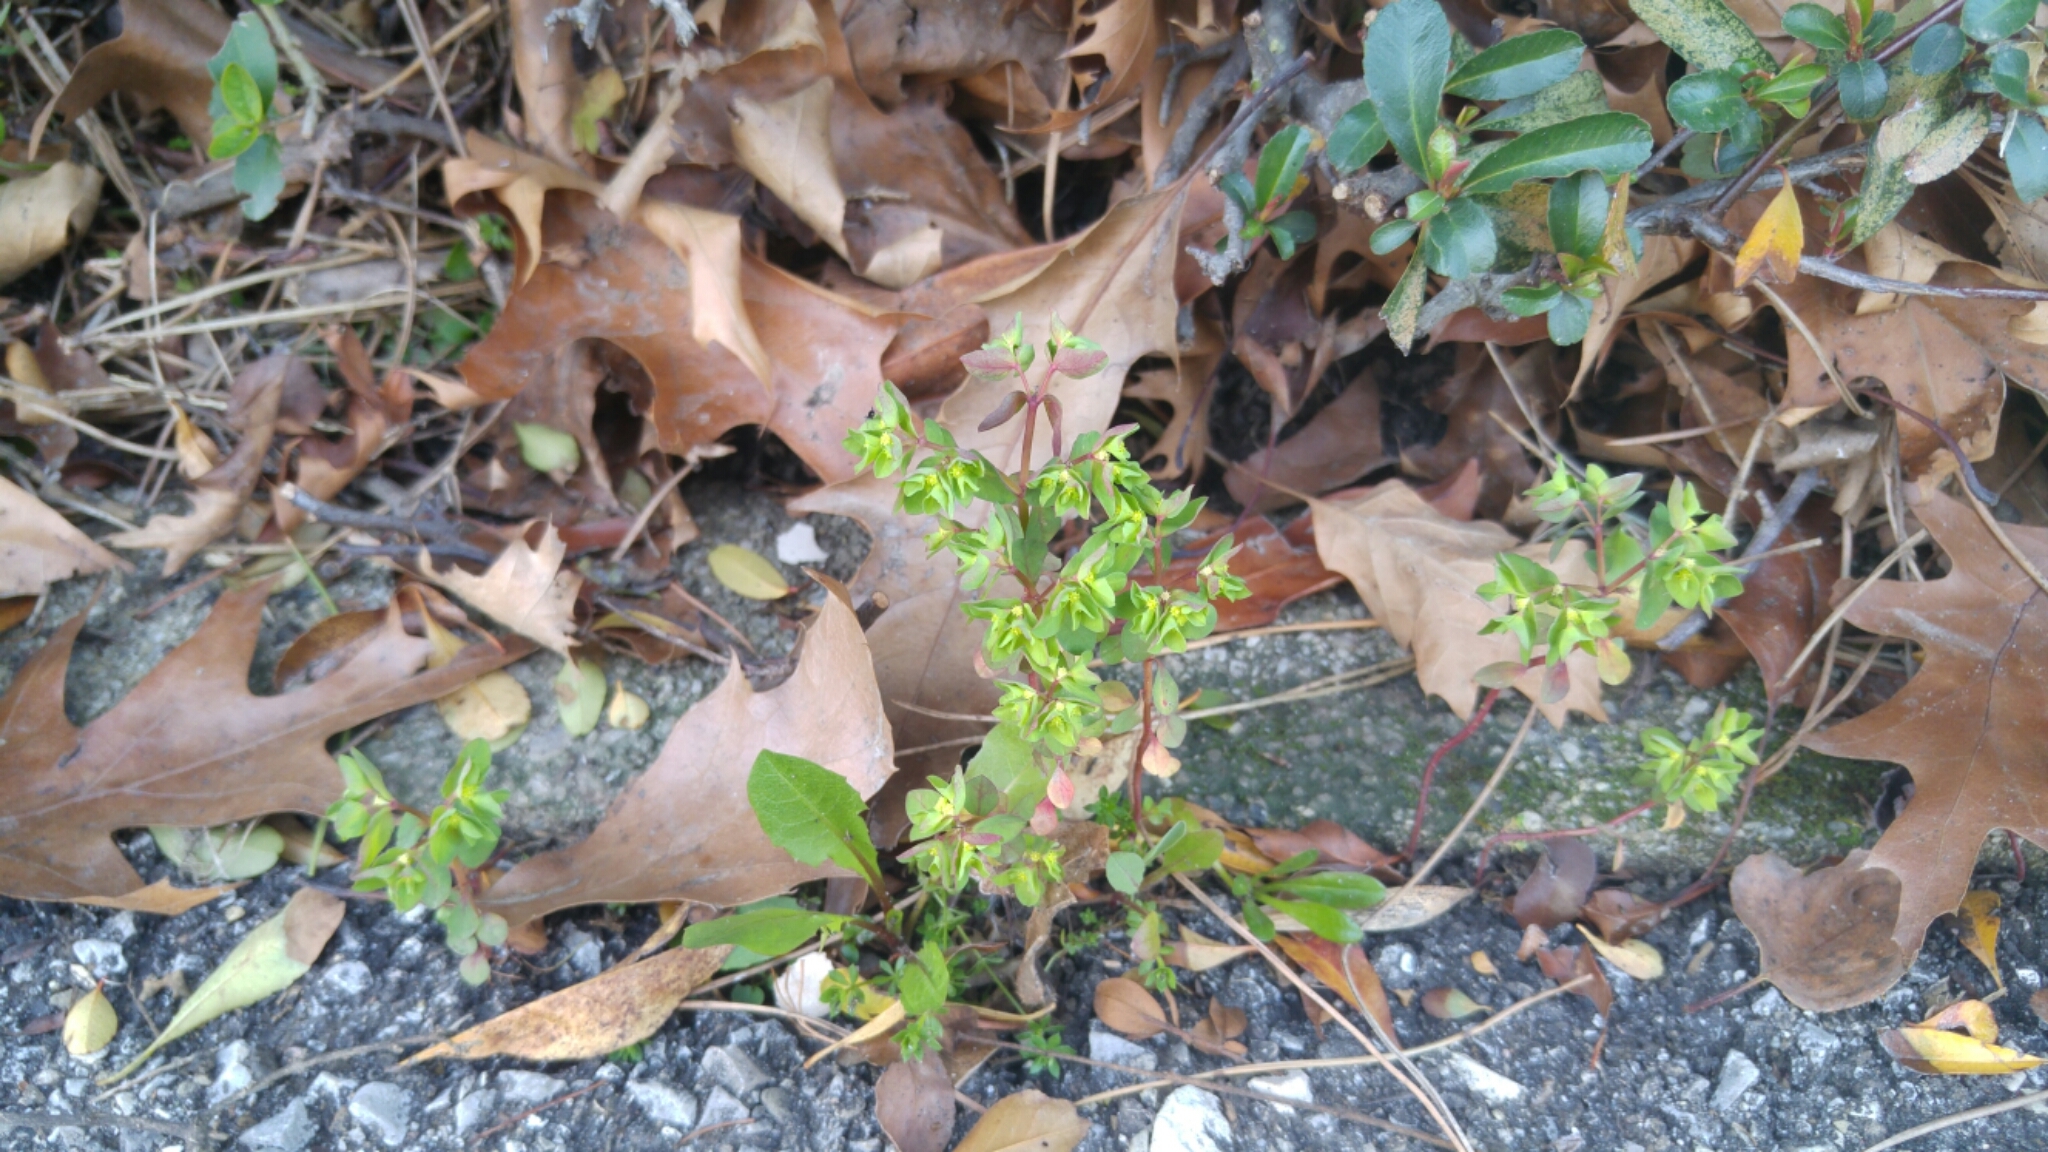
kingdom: Plantae
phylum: Tracheophyta
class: Magnoliopsida
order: Malpighiales
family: Euphorbiaceae
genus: Euphorbia
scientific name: Euphorbia peplus
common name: Petty spurge
